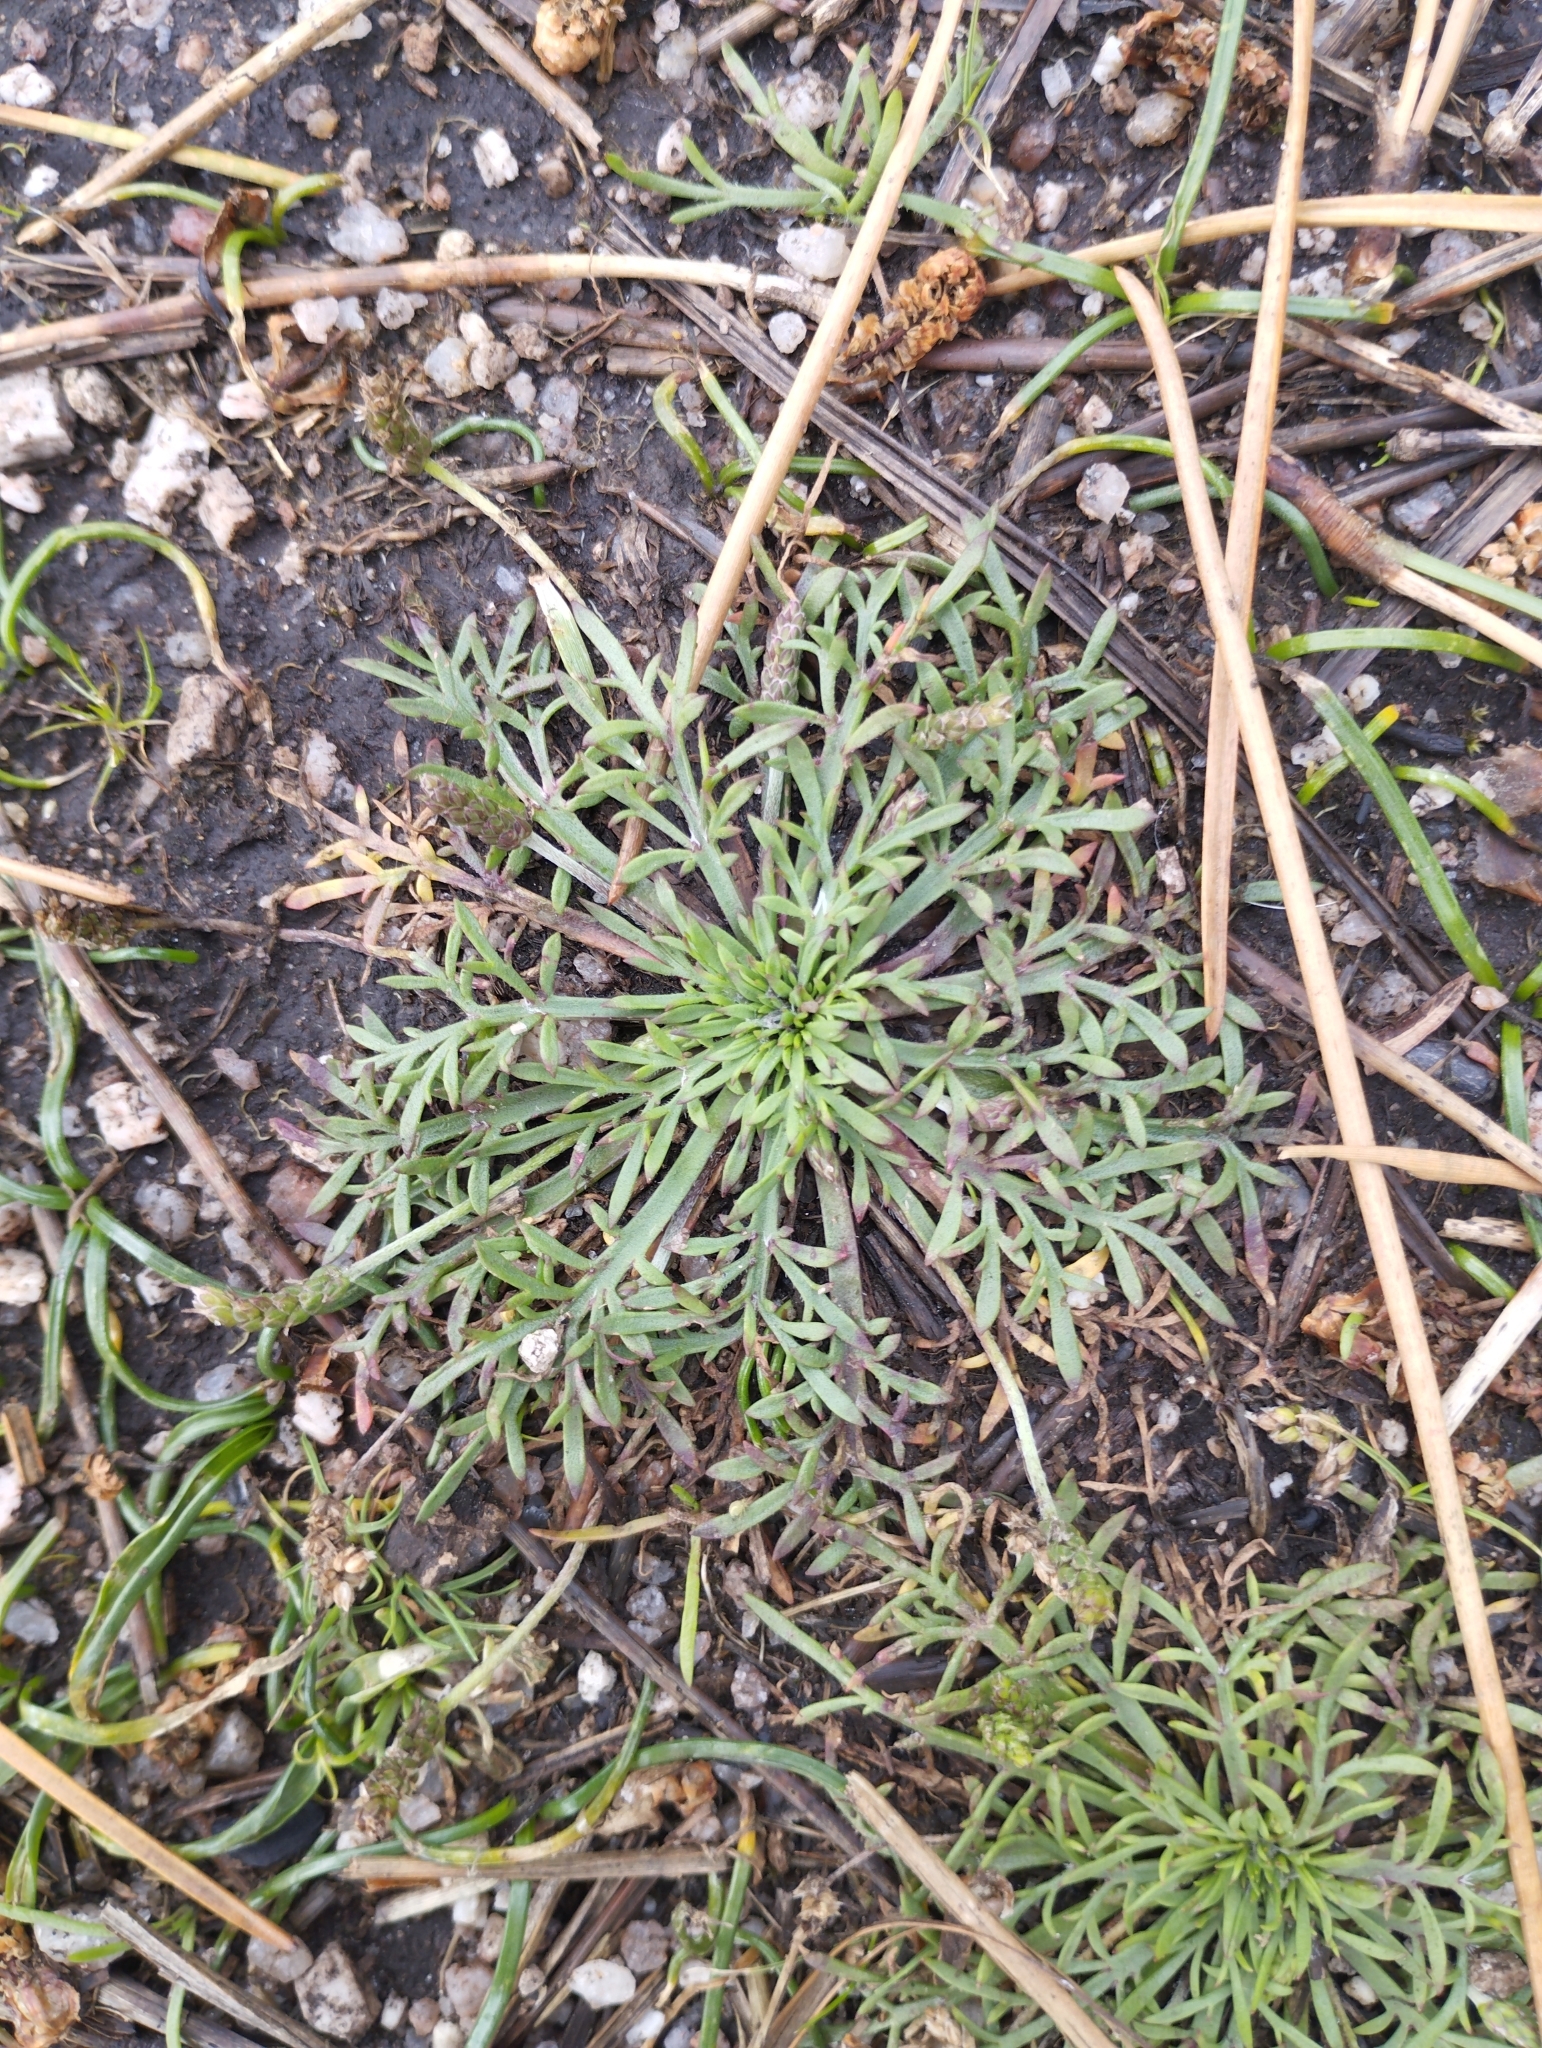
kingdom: Plantae
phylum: Tracheophyta
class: Magnoliopsida
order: Lamiales
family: Plantaginaceae
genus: Plantago
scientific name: Plantago coronopus
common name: Buck's-horn plantain
